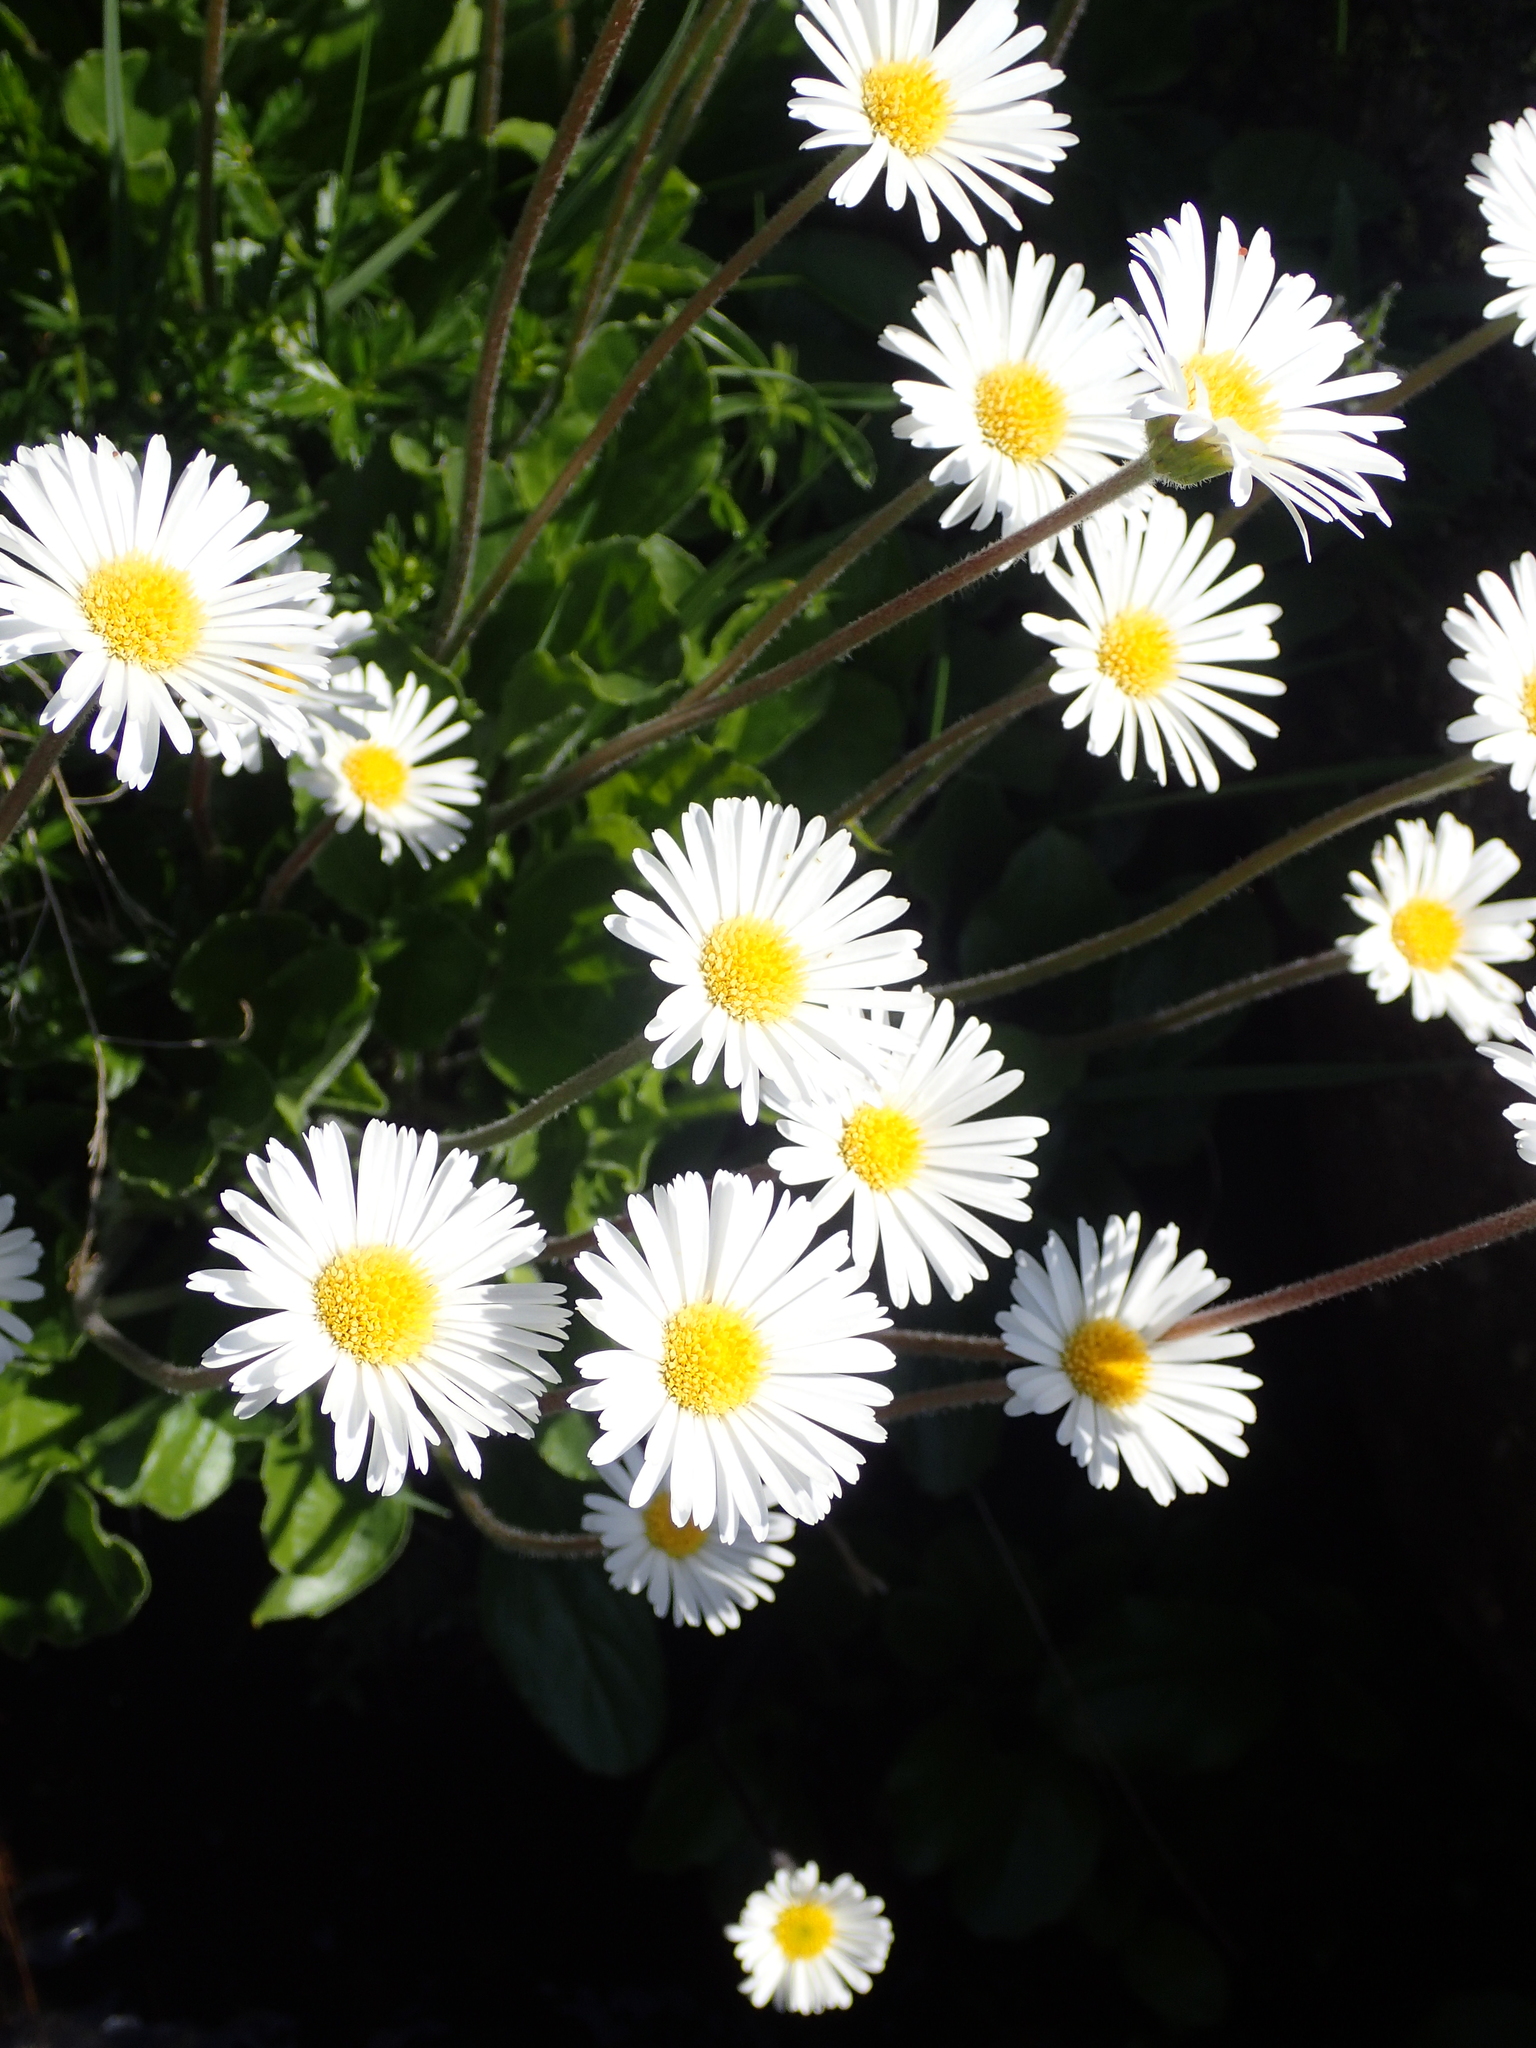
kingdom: Plantae
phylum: Tracheophyta
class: Magnoliopsida
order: Asterales
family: Asteraceae
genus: Bellis
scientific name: Bellis perennis
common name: Lawndaisy
